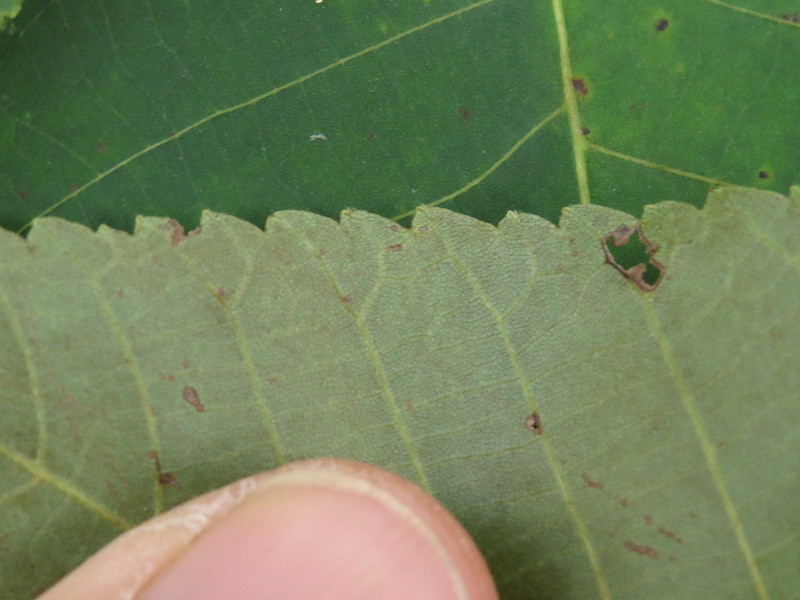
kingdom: Plantae
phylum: Tracheophyta
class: Magnoliopsida
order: Fagales
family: Juglandaceae
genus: Carya
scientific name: Carya ovata
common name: Shagbark hickory
